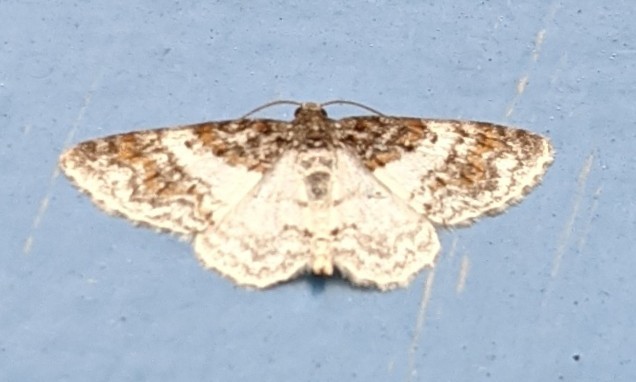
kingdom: Animalia
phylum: Arthropoda
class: Insecta
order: Lepidoptera
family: Geometridae
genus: Hydrelia
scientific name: Hydrelia condensata
